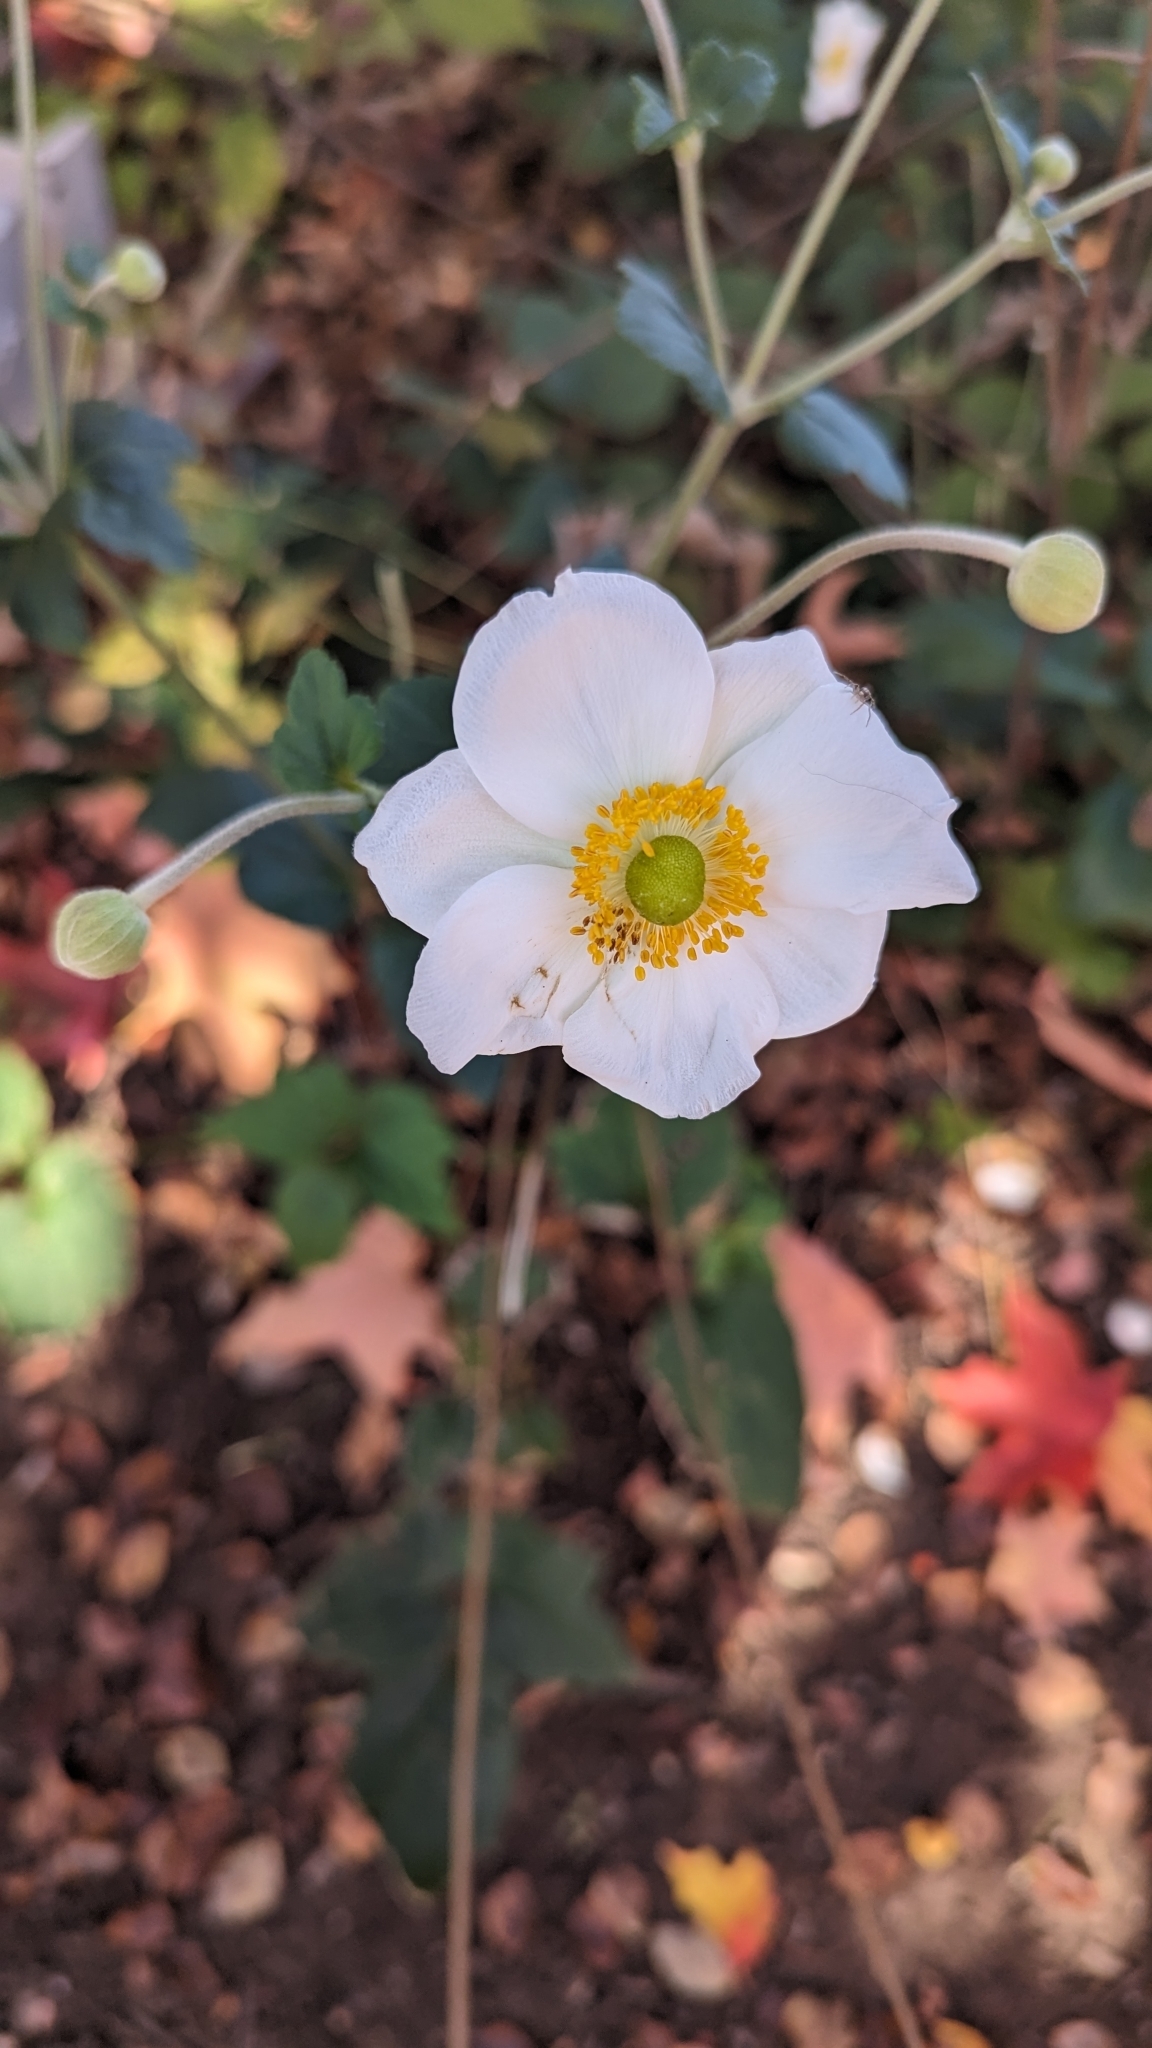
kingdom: Plantae
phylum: Tracheophyta
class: Magnoliopsida
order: Ranunculales
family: Ranunculaceae
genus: Eriocapitella
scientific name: Eriocapitella japonica
